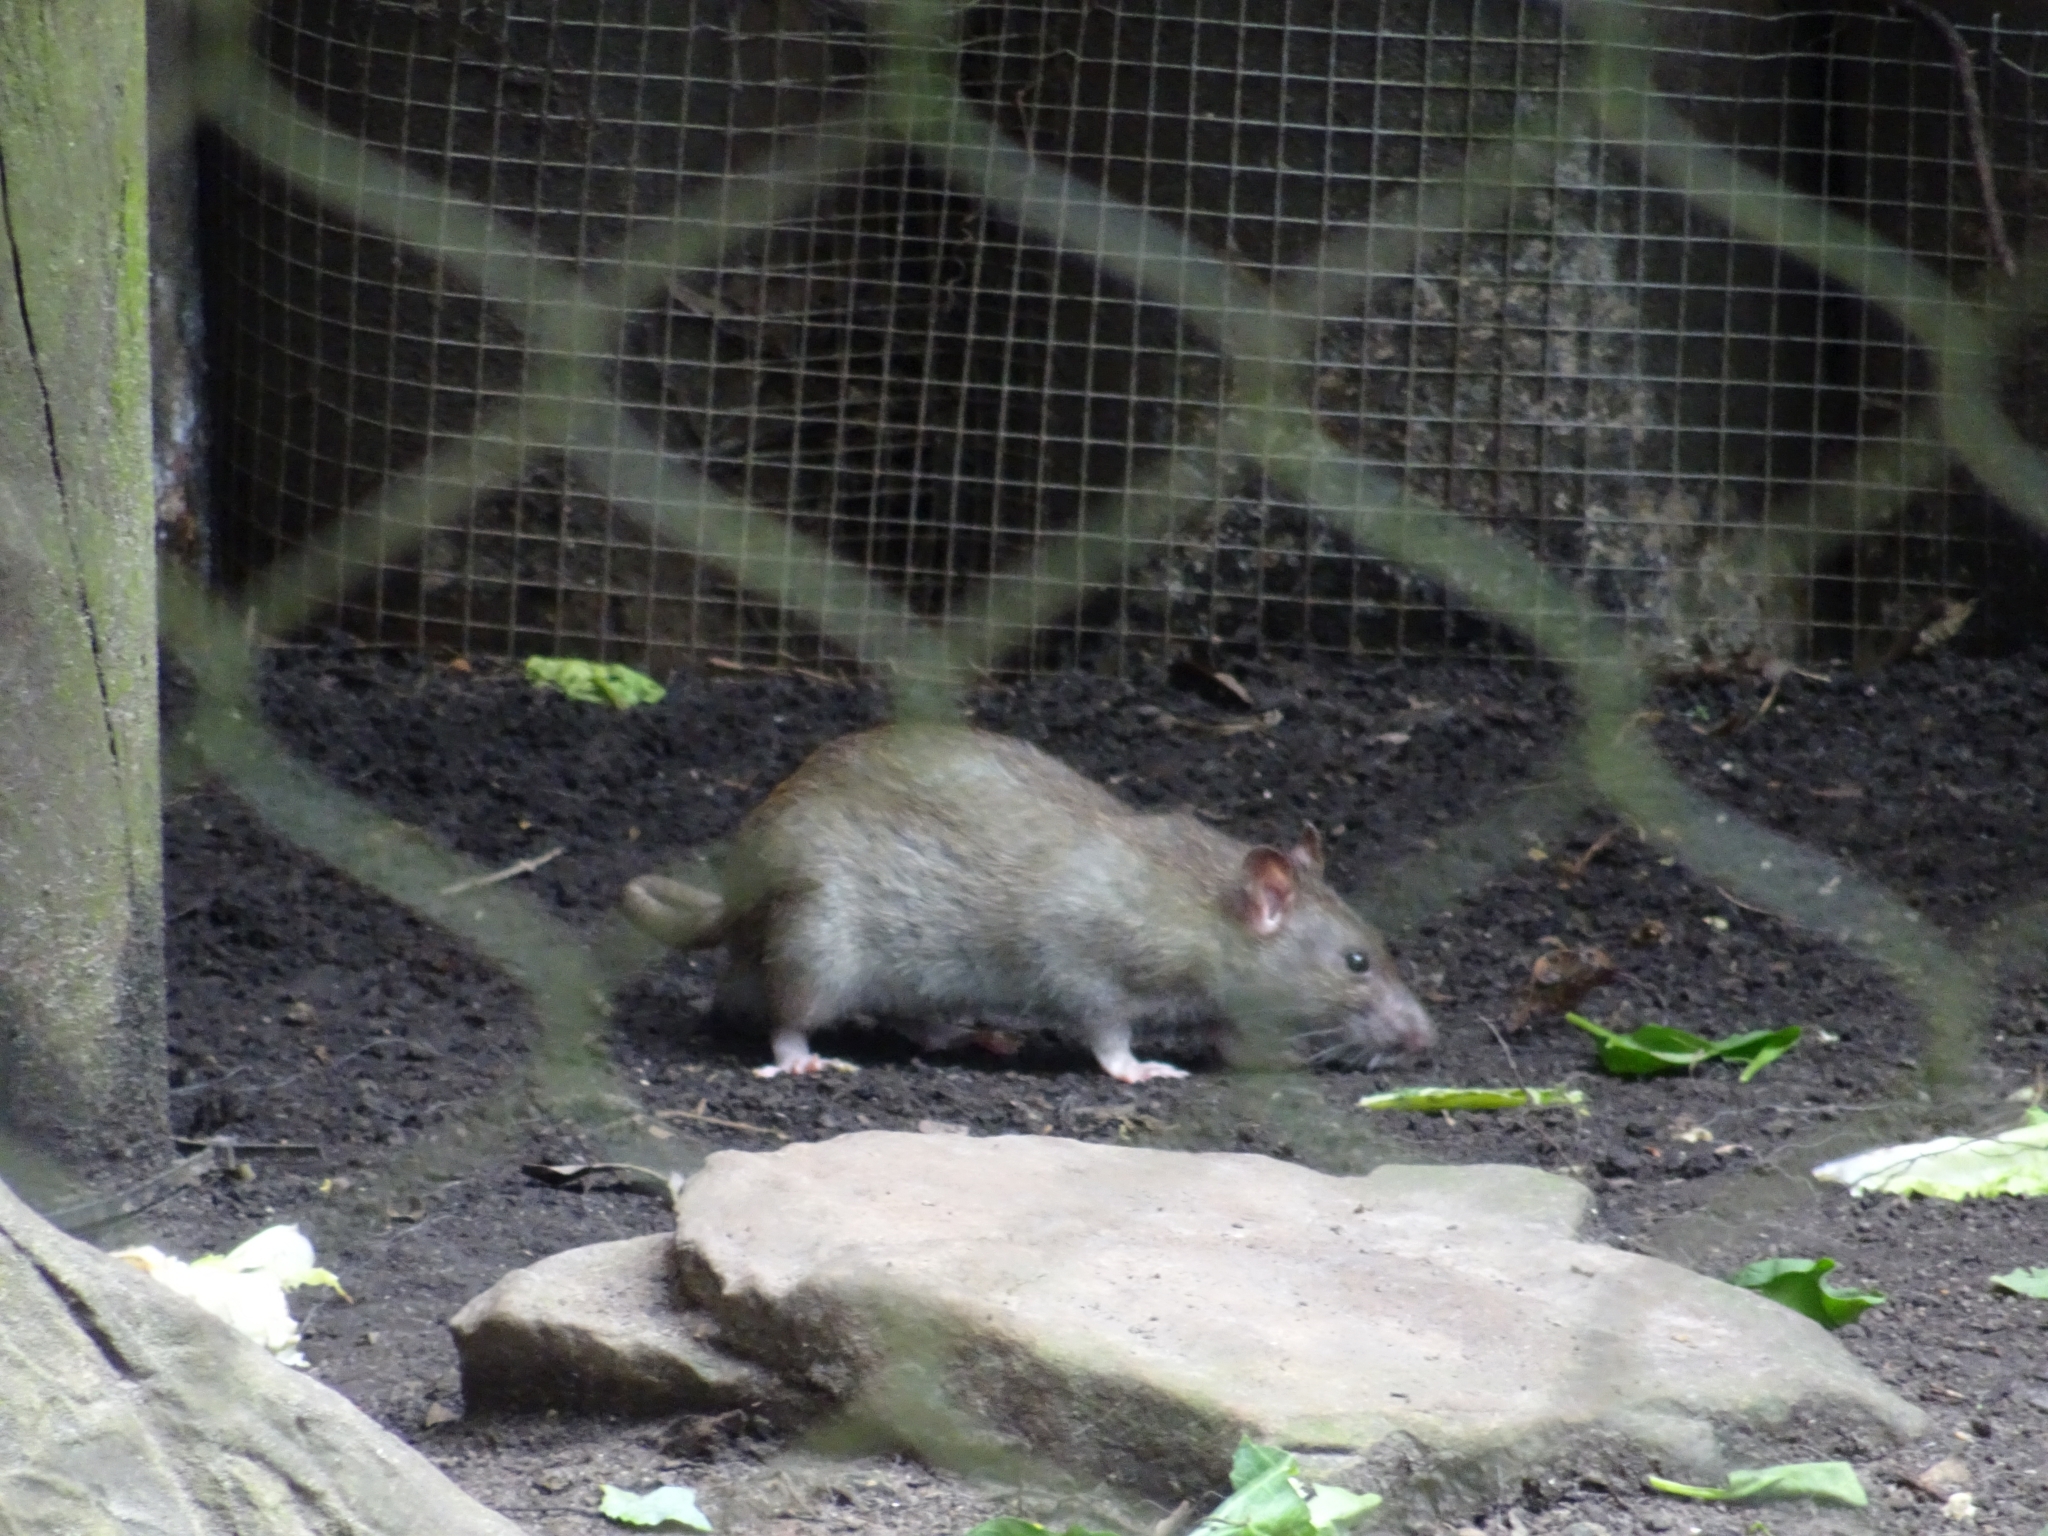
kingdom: Animalia
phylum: Chordata
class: Mammalia
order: Rodentia
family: Muridae
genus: Rattus
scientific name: Rattus norvegicus
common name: Brown rat
